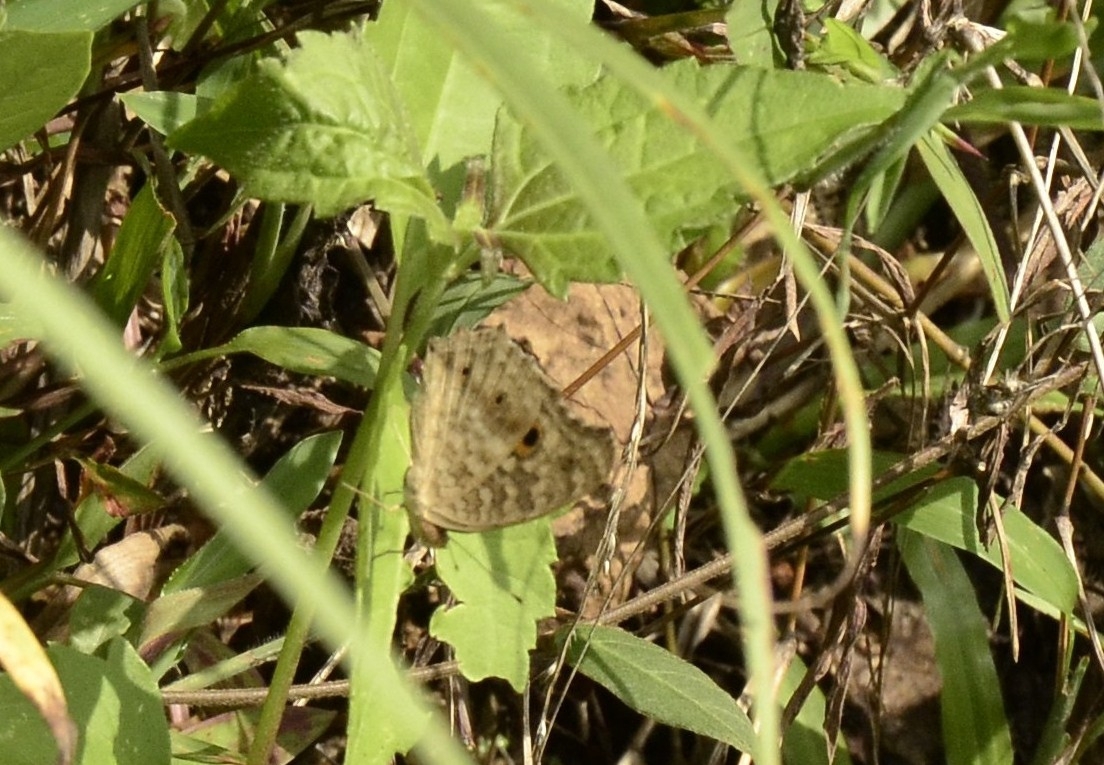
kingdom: Animalia
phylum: Arthropoda
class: Insecta
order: Lepidoptera
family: Nymphalidae
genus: Junonia
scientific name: Junonia lemonias
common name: Lemon pansy
